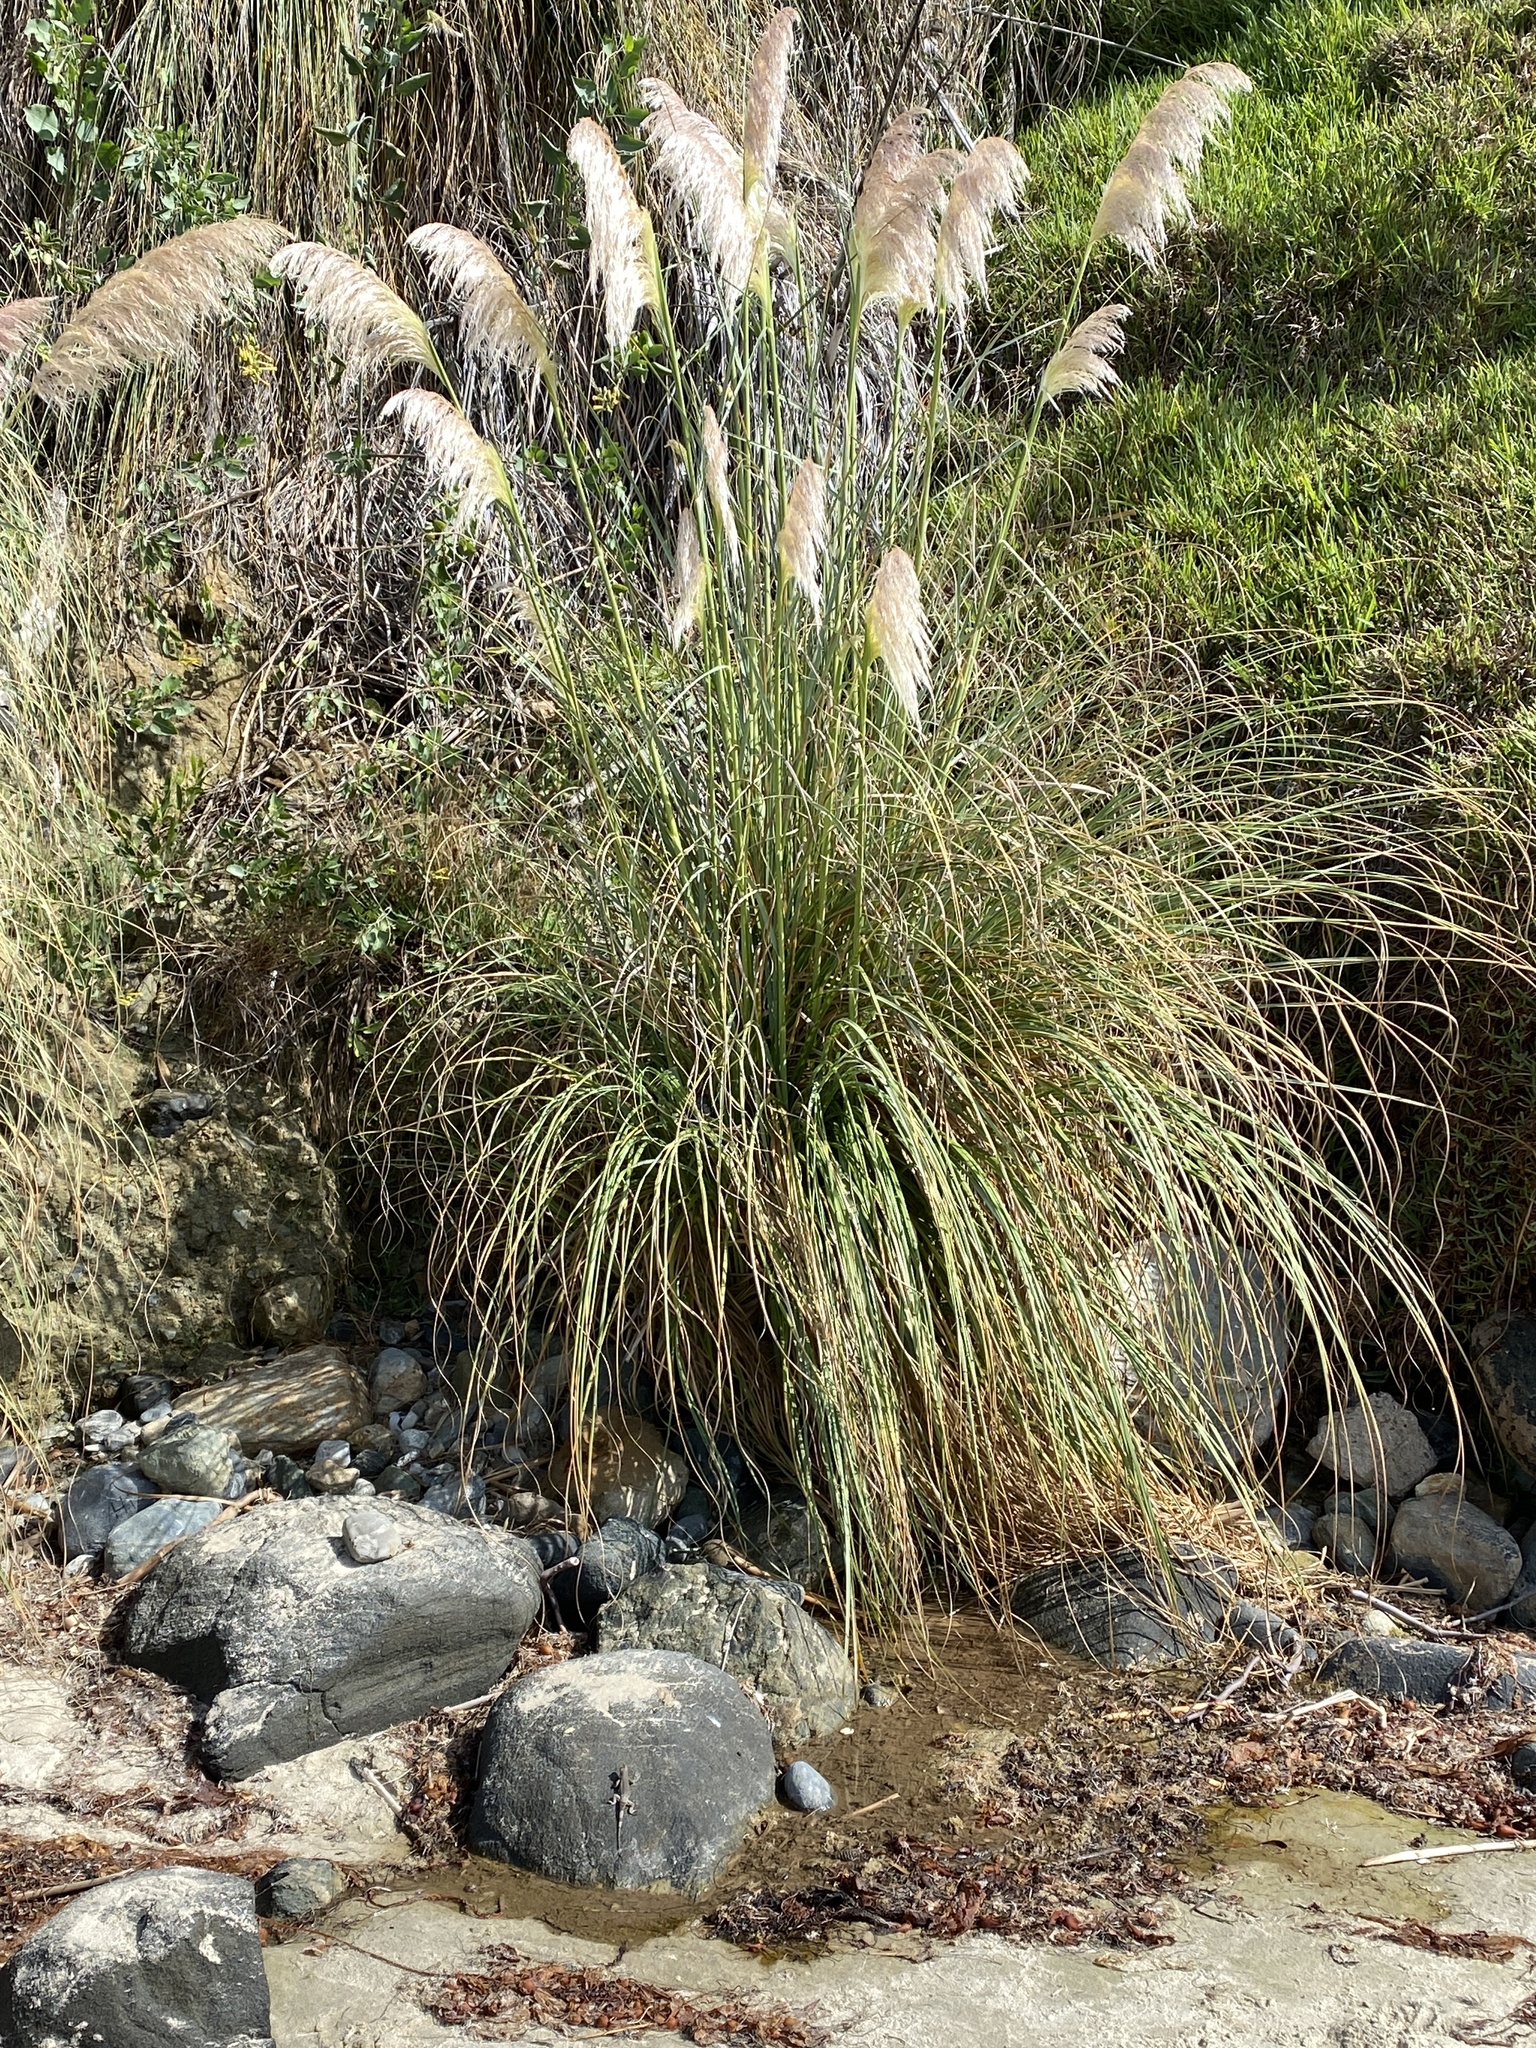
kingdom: Plantae
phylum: Tracheophyta
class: Liliopsida
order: Poales
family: Poaceae
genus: Cortaderia
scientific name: Cortaderia selloana
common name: Uruguayan pampas grass
